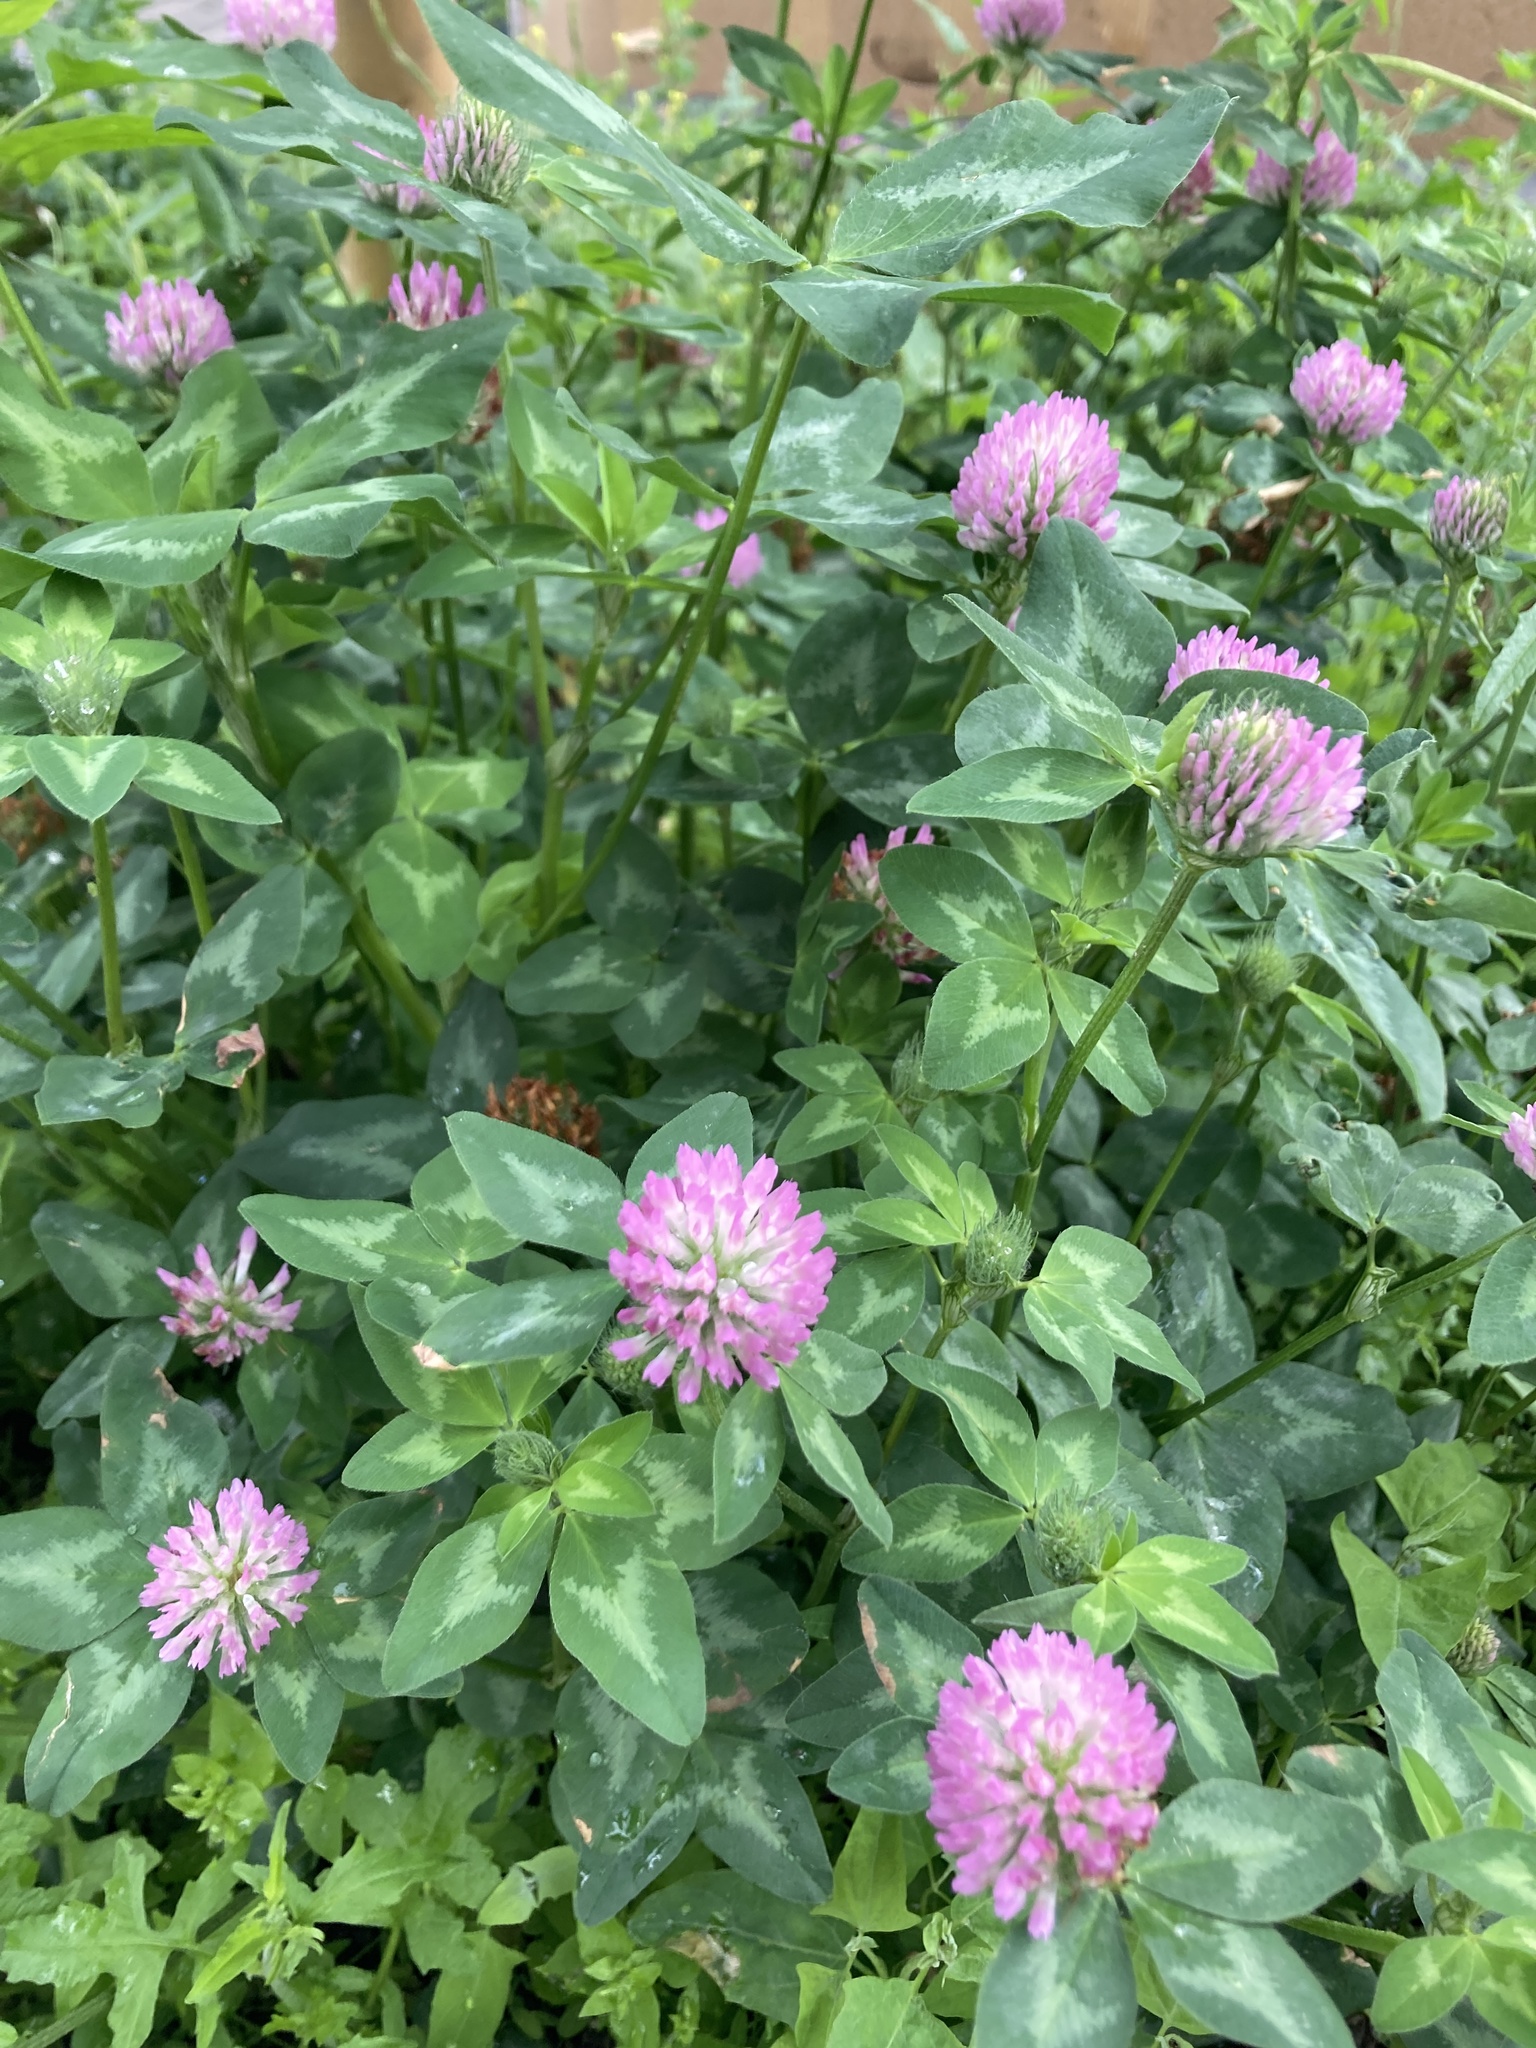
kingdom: Plantae
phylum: Tracheophyta
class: Magnoliopsida
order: Fabales
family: Fabaceae
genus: Trifolium
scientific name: Trifolium pratense
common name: Red clover
